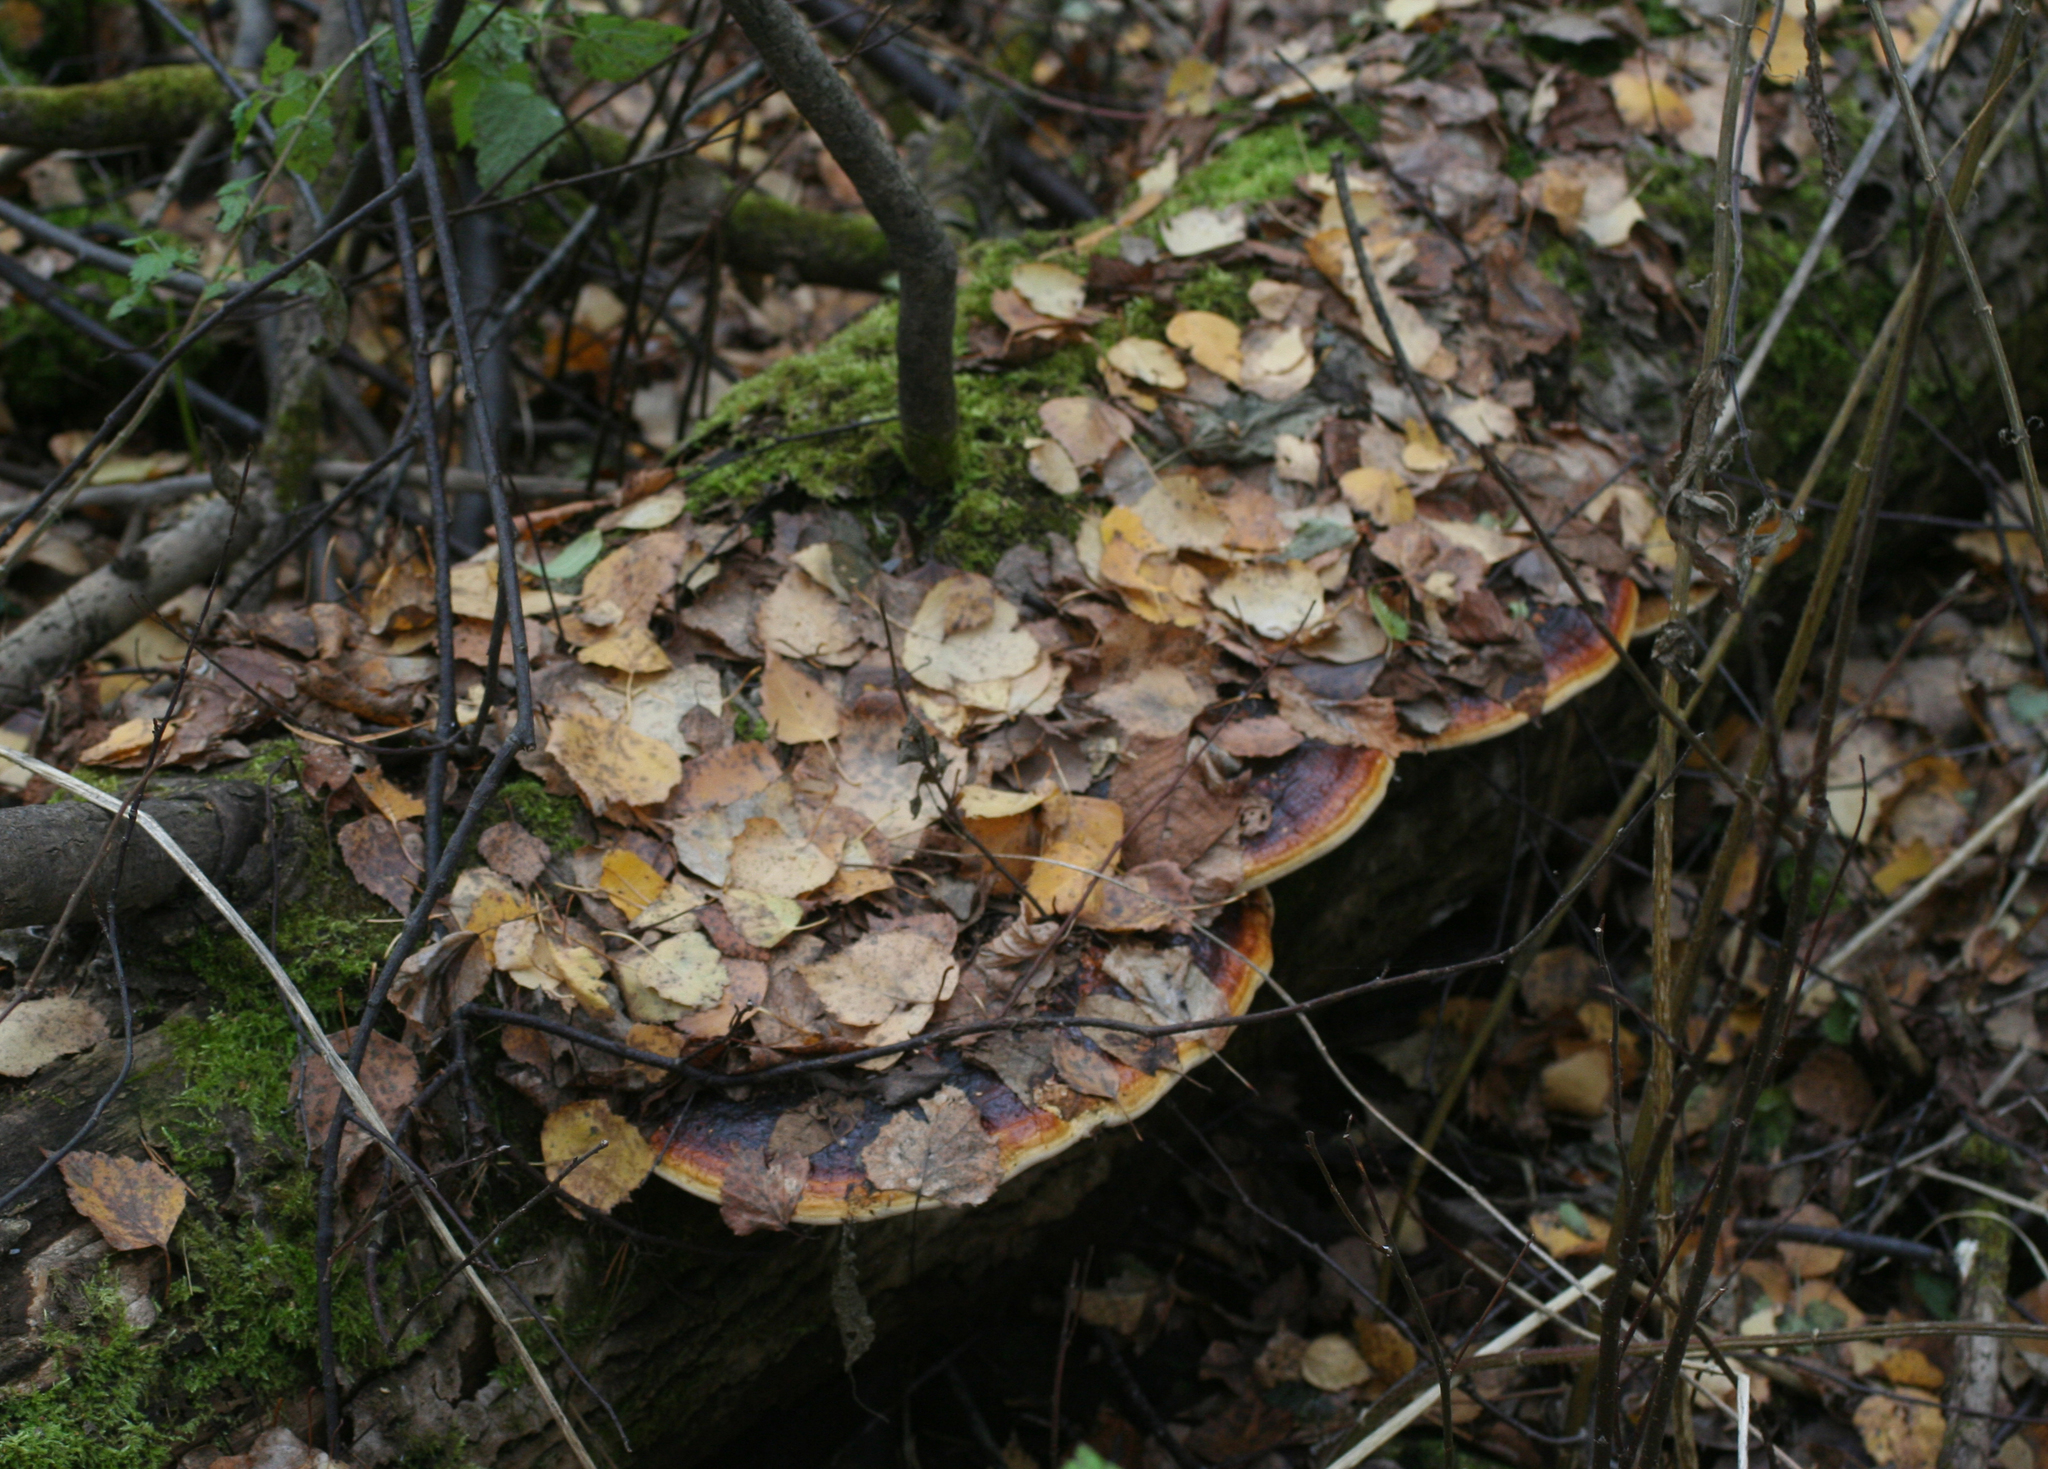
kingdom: Fungi
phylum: Basidiomycota
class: Agaricomycetes
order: Polyporales
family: Fomitopsidaceae
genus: Fomitopsis
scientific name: Fomitopsis pinicola
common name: Red-belted bracket
